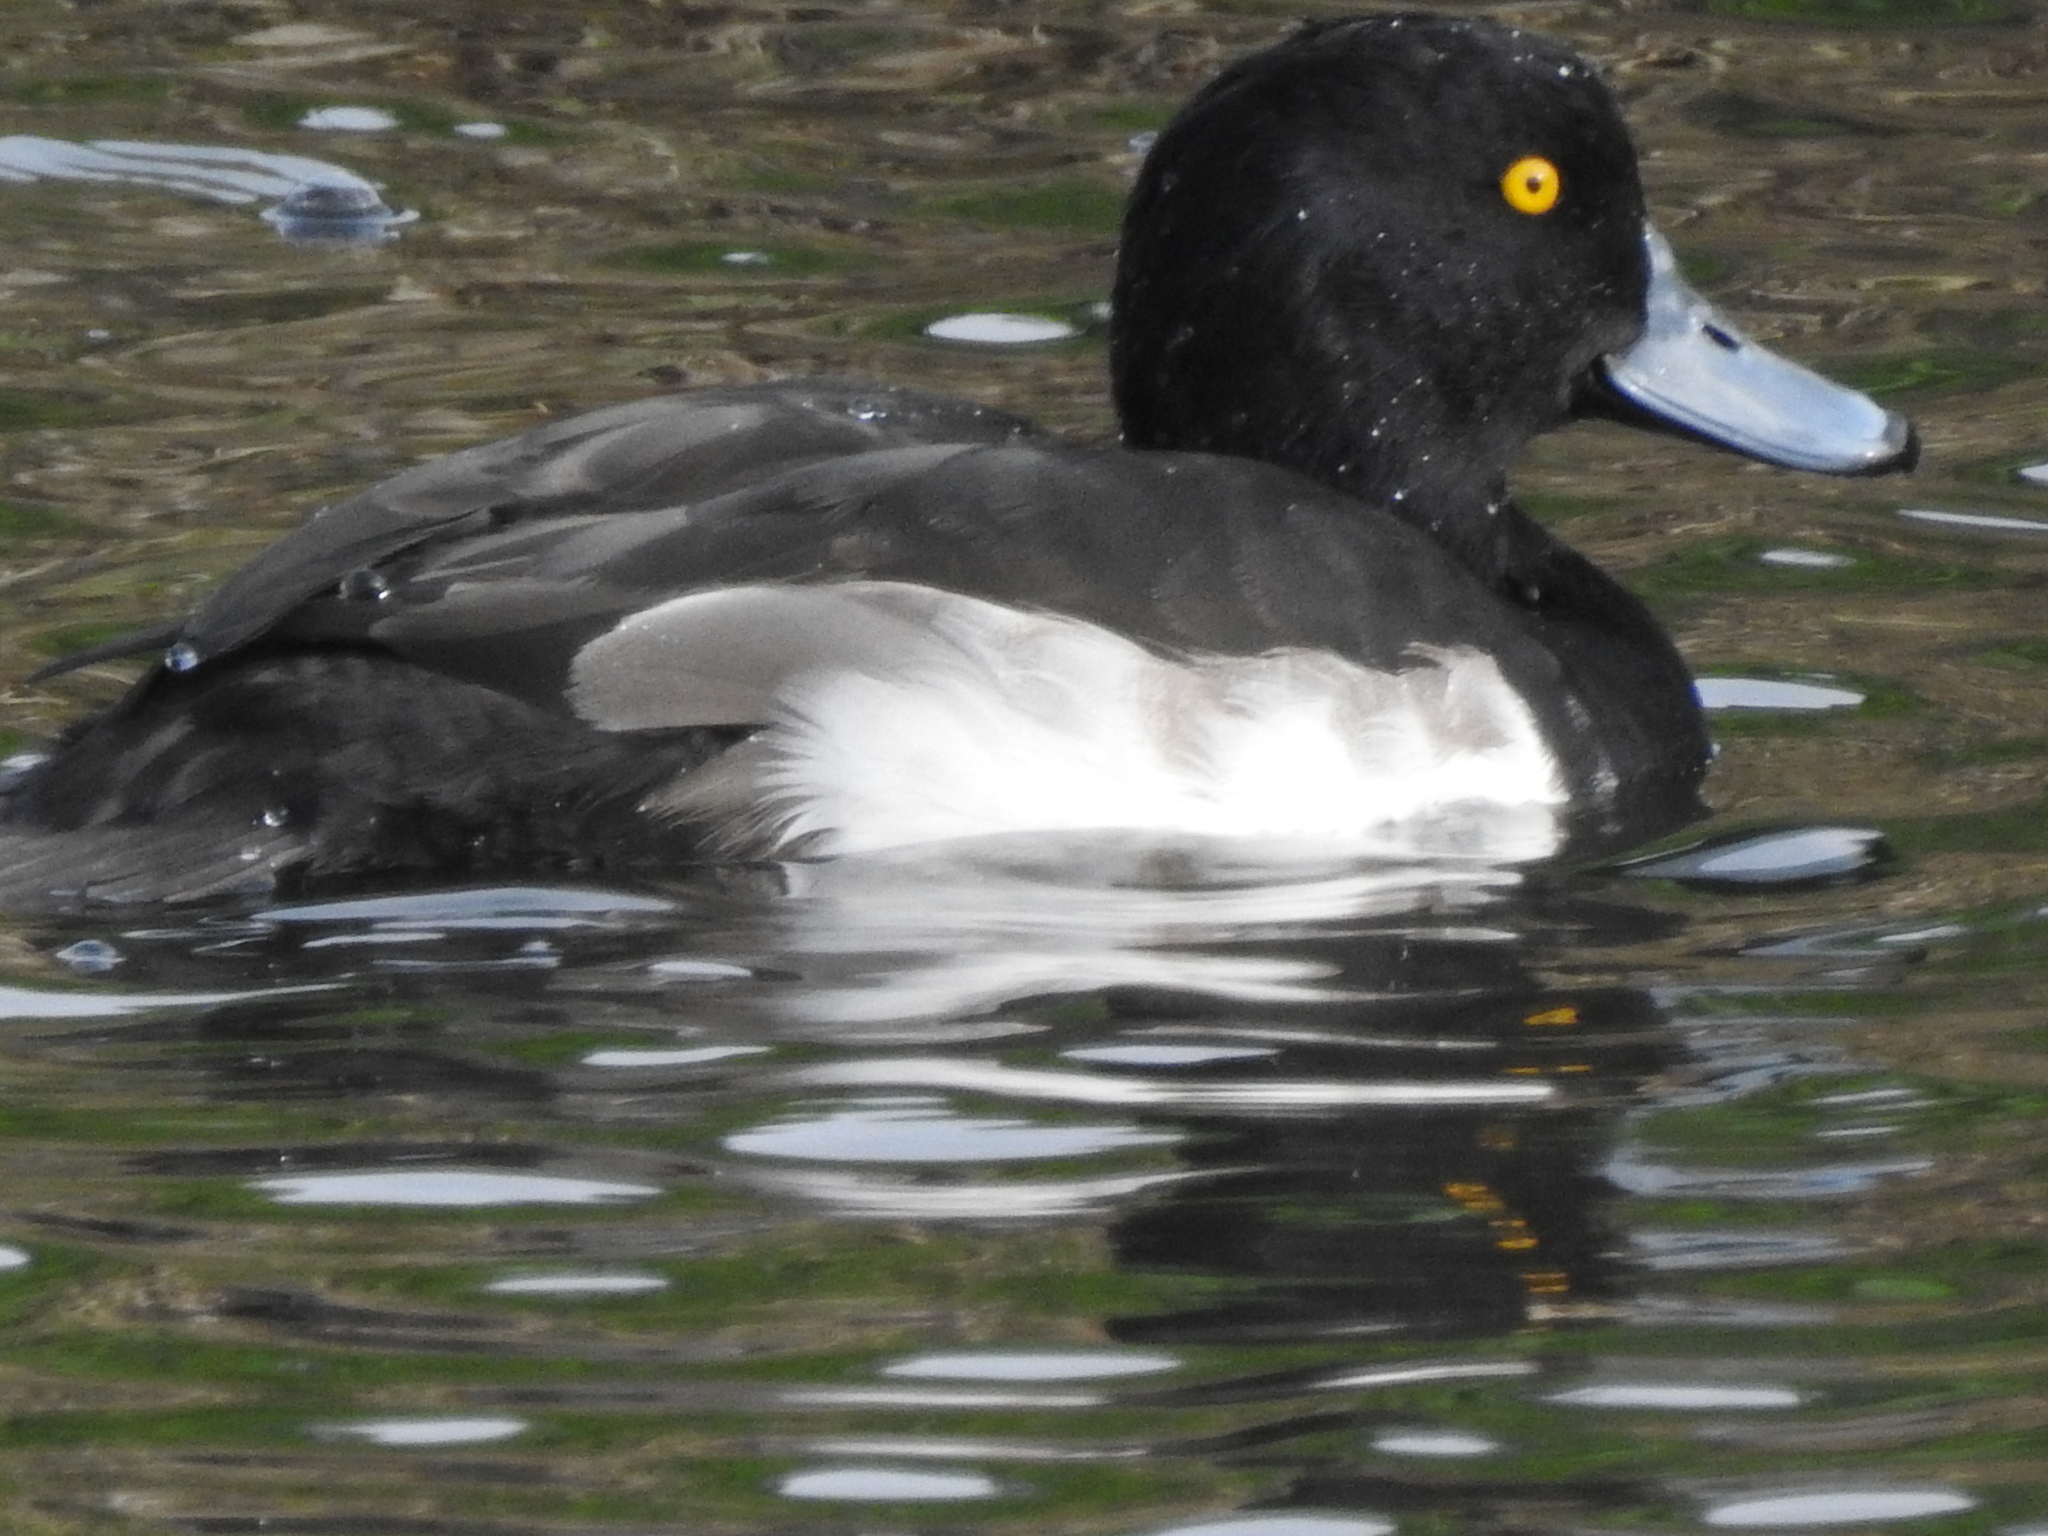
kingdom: Animalia
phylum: Chordata
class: Aves
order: Anseriformes
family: Anatidae
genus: Aythya
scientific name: Aythya fuligula
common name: Tufted duck
